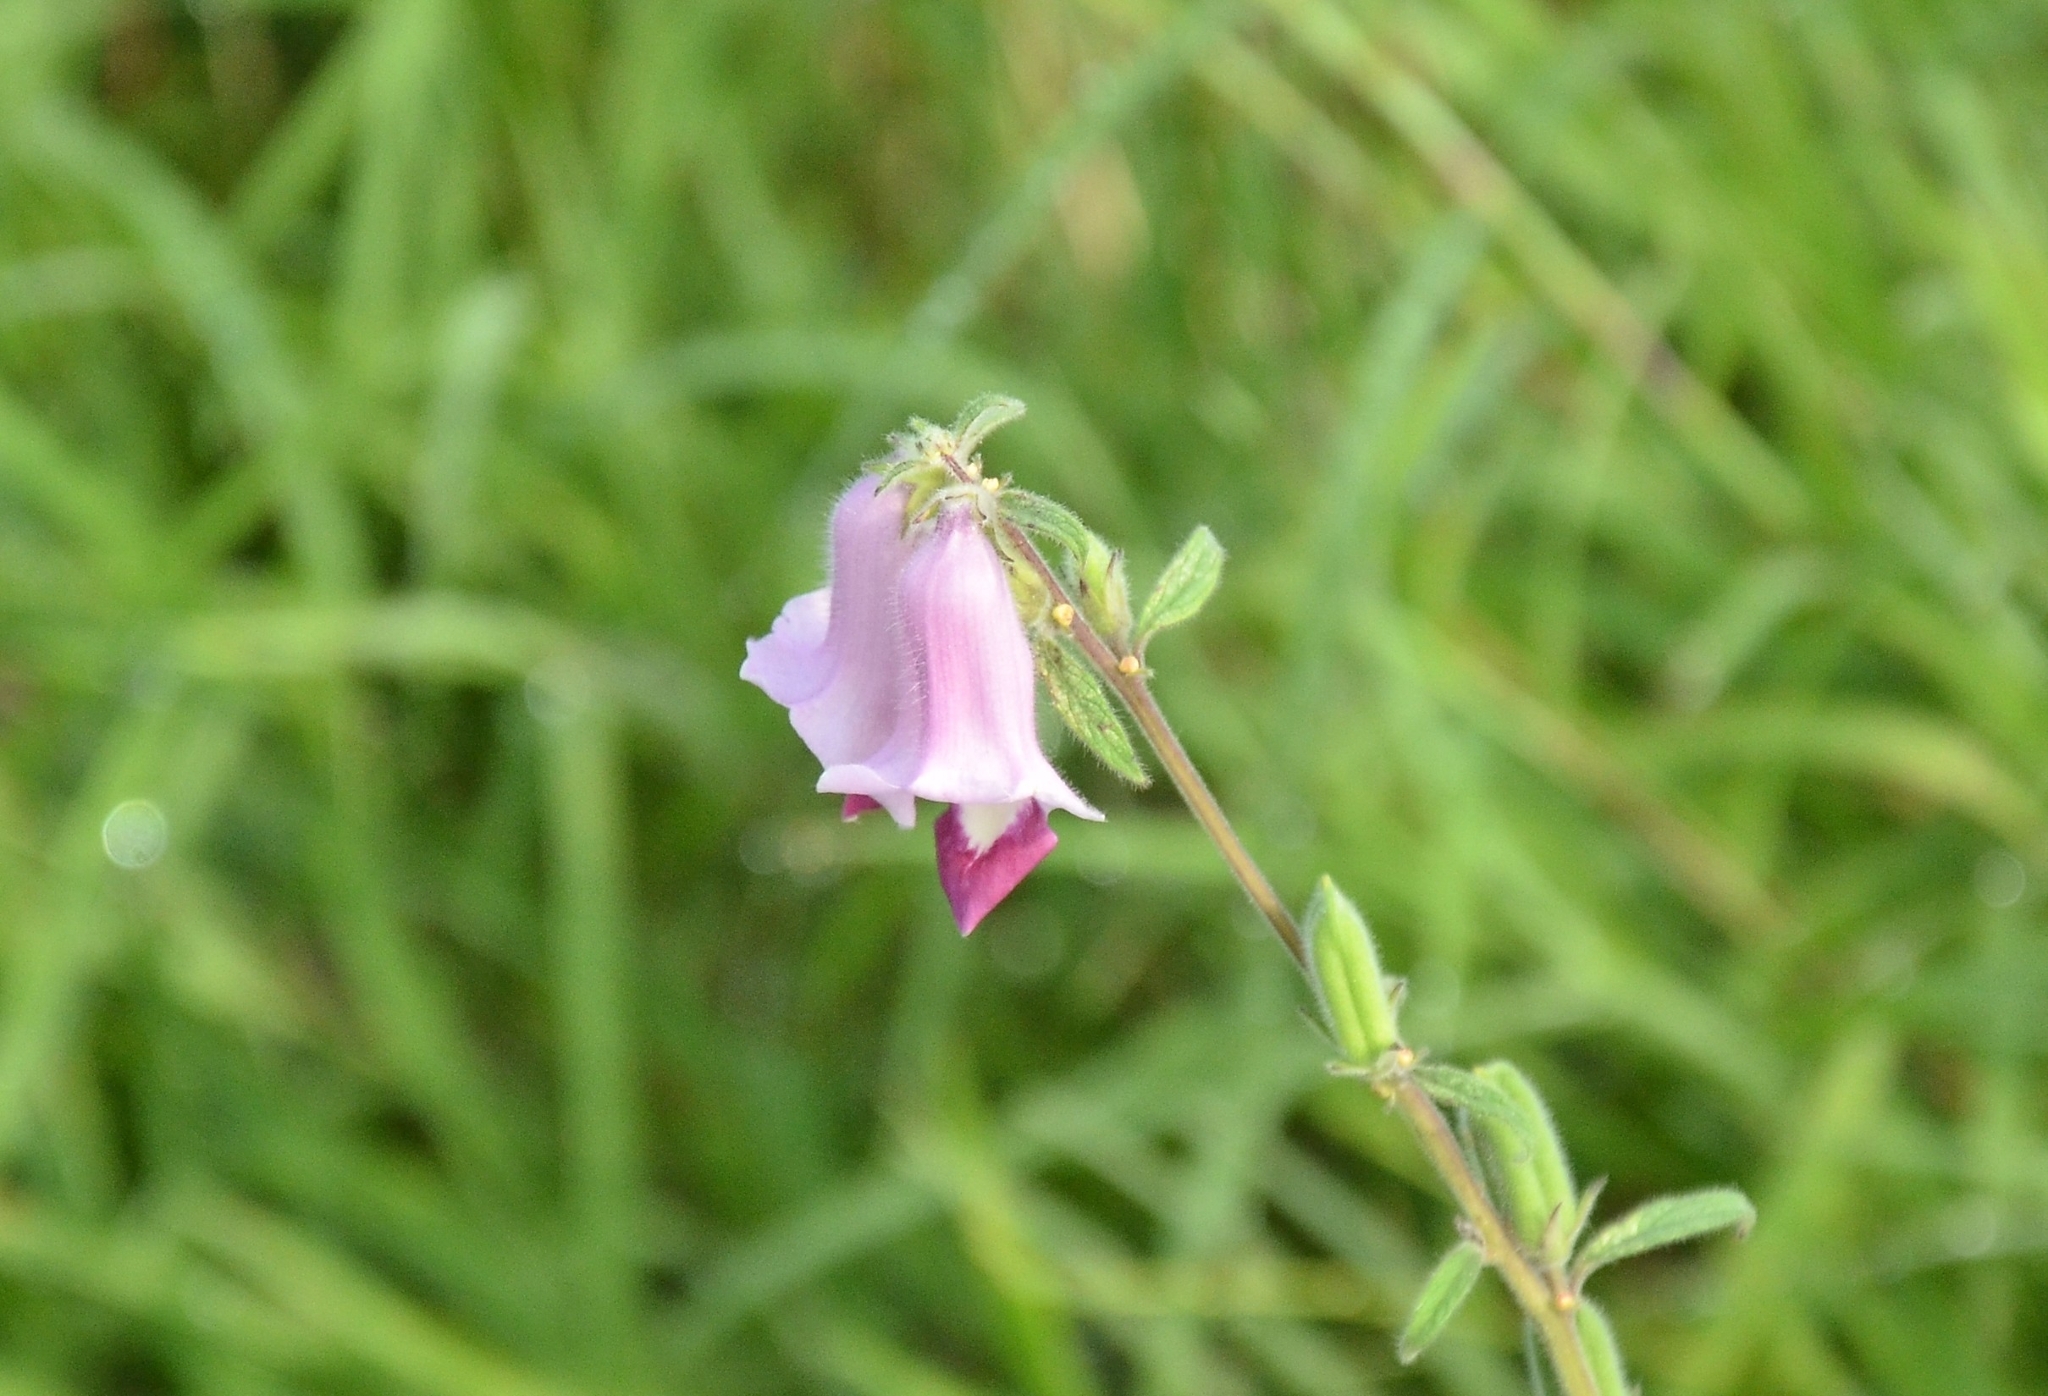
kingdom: Plantae
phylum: Tracheophyta
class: Magnoliopsida
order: Lamiales
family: Pedaliaceae
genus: Sesamum
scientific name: Sesamum indicum
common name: Sesame
